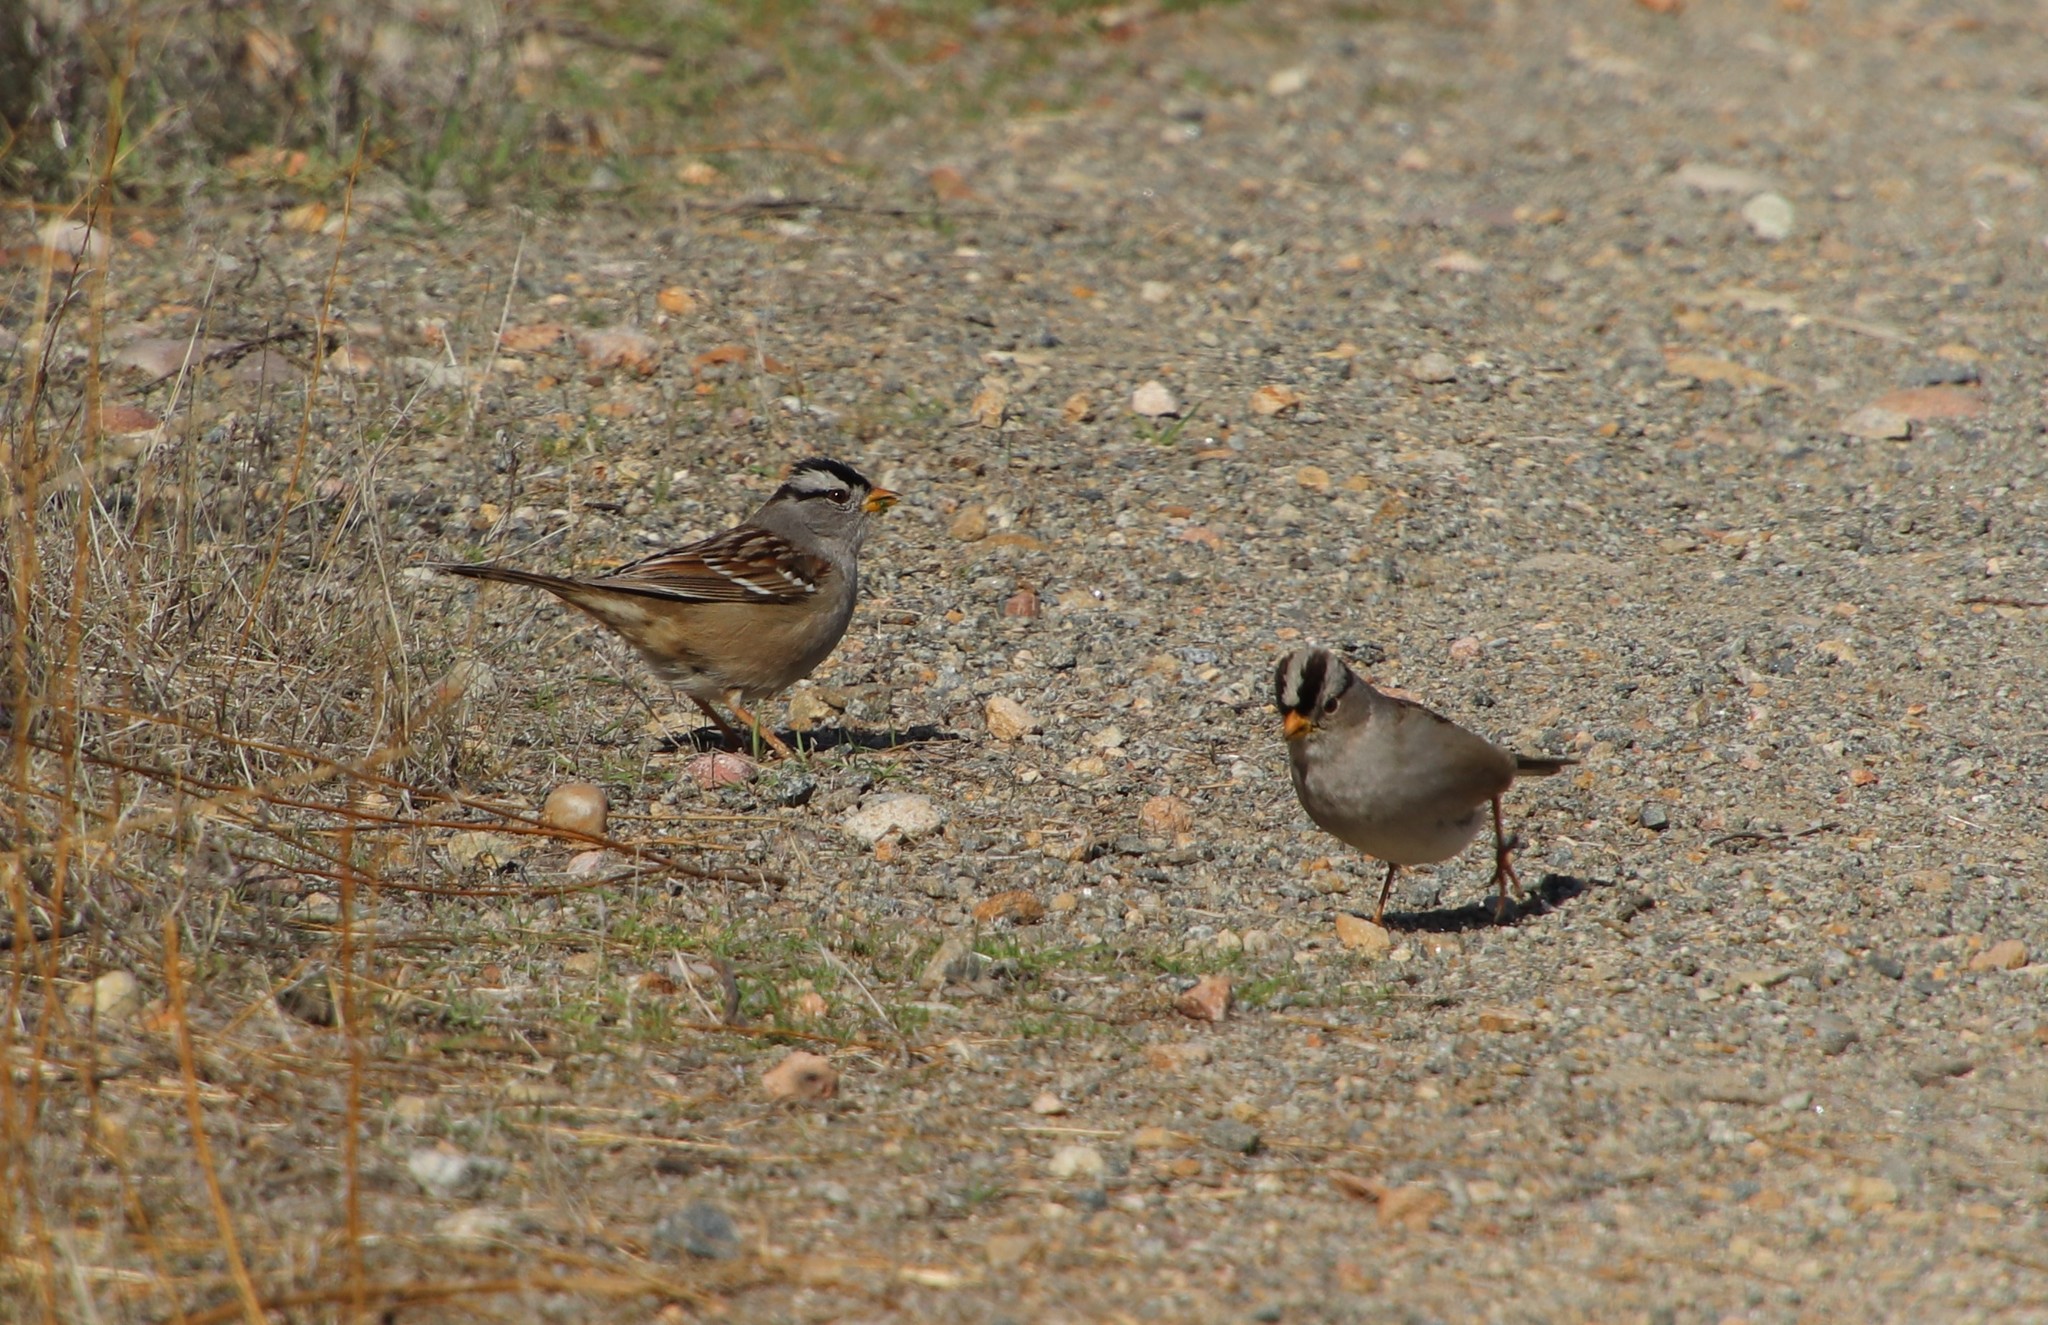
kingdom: Animalia
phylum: Chordata
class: Aves
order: Passeriformes
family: Passerellidae
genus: Zonotrichia
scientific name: Zonotrichia leucophrys
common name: White-crowned sparrow
